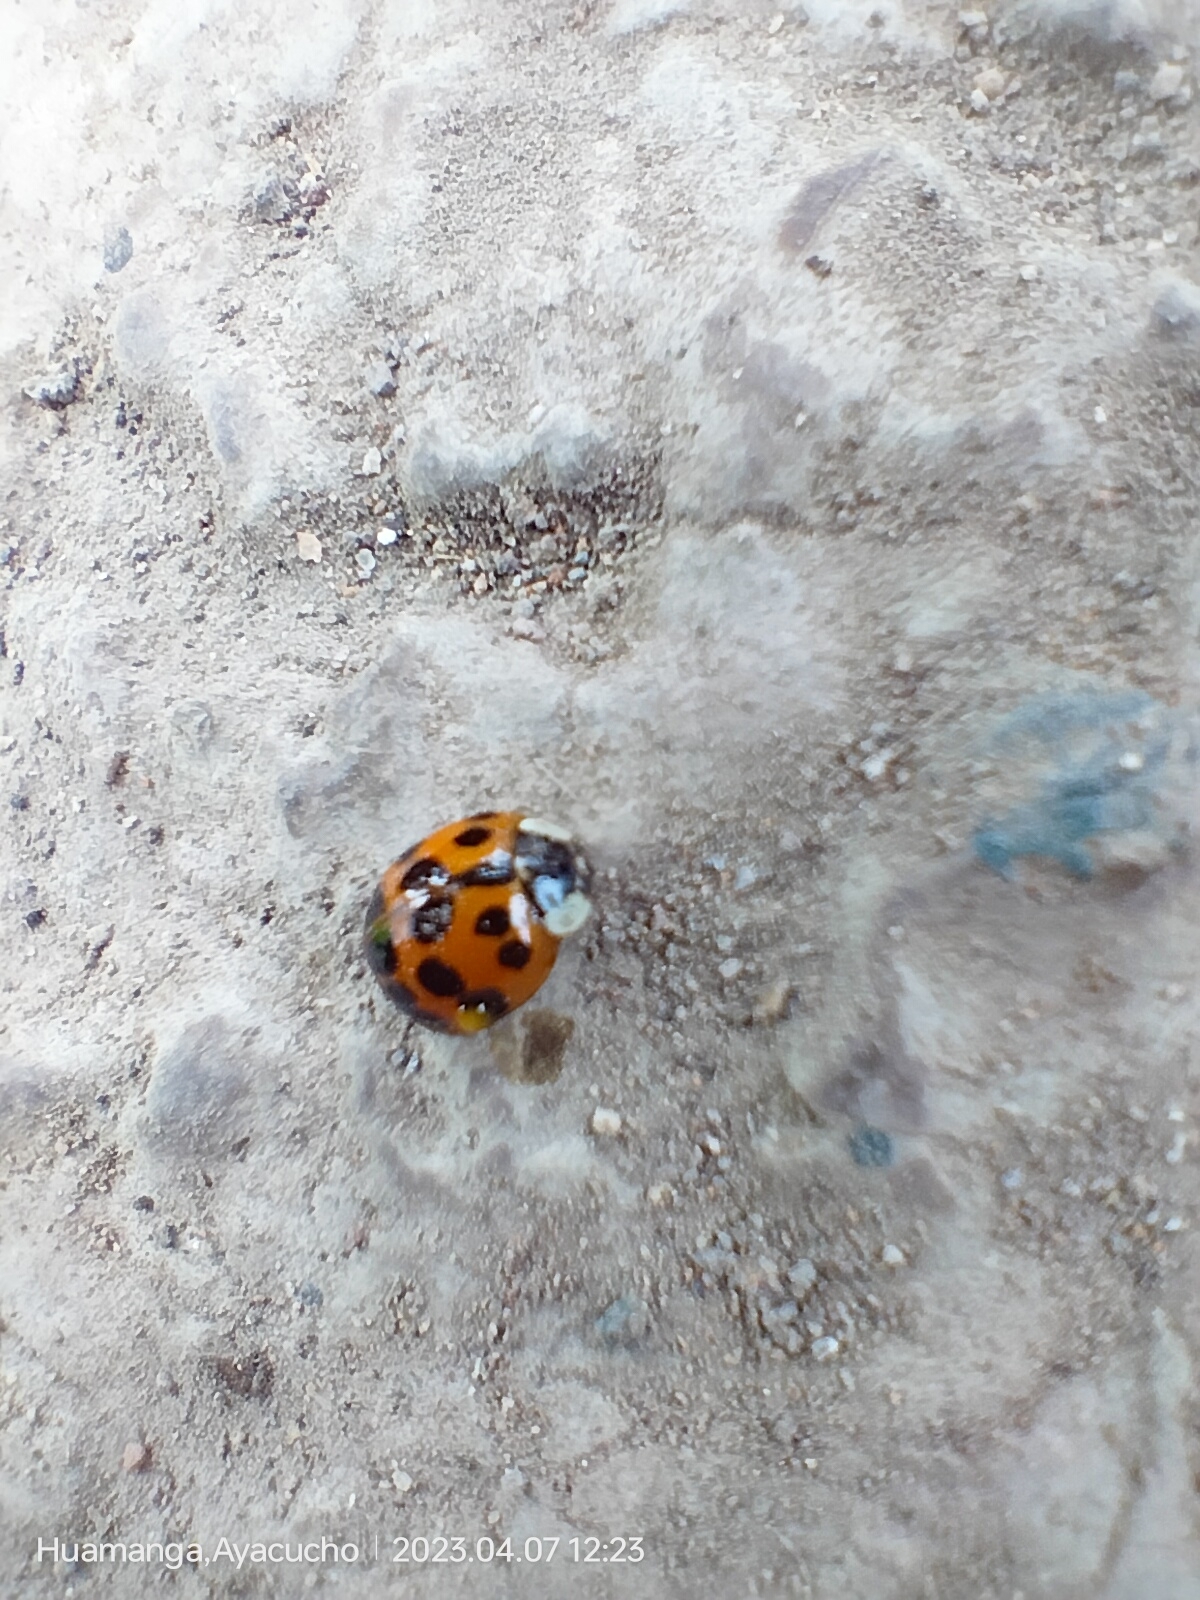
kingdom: Animalia
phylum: Arthropoda
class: Insecta
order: Coleoptera
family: Coccinellidae
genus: Harmonia
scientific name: Harmonia axyridis
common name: Harlequin ladybird
